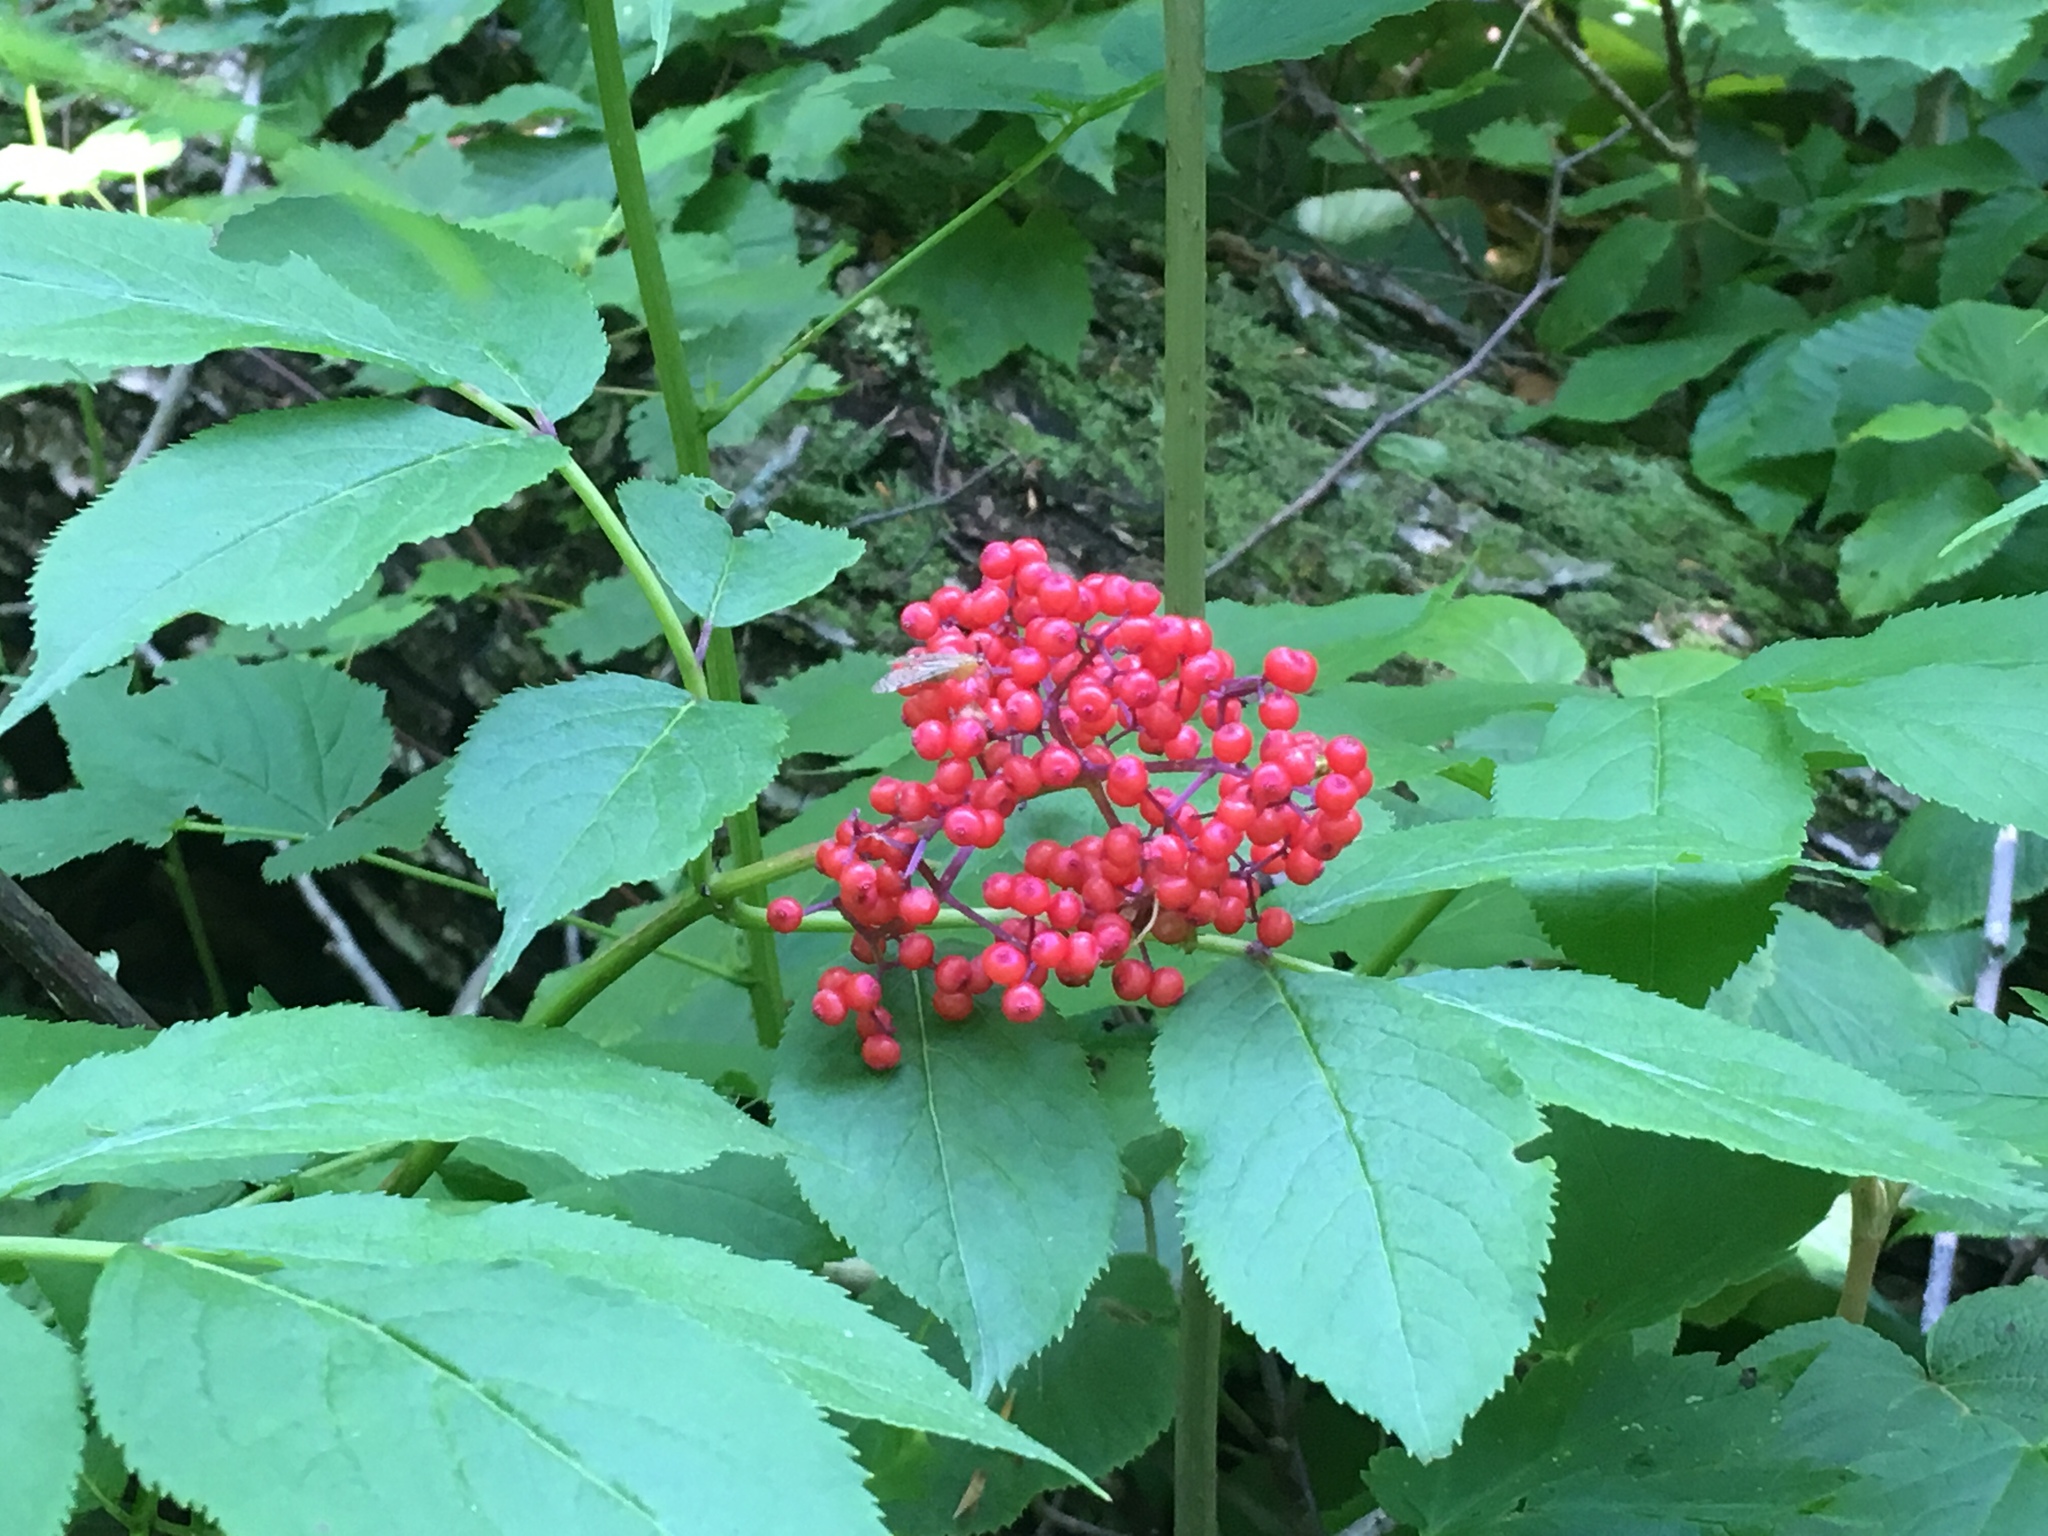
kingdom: Plantae
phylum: Tracheophyta
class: Magnoliopsida
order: Dipsacales
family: Viburnaceae
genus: Sambucus
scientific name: Sambucus racemosa
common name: Red-berried elder
